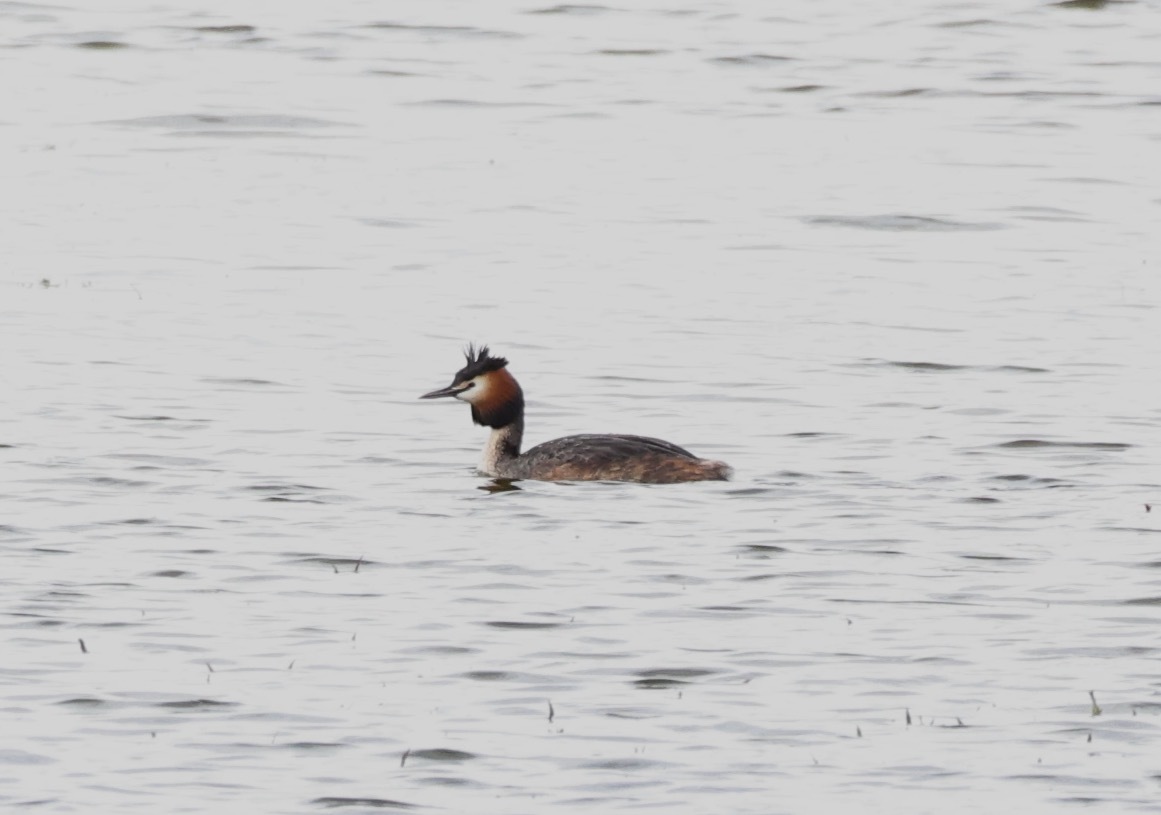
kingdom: Animalia
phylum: Chordata
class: Aves
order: Podicipediformes
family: Podicipedidae
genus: Podiceps
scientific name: Podiceps cristatus
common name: Great crested grebe
